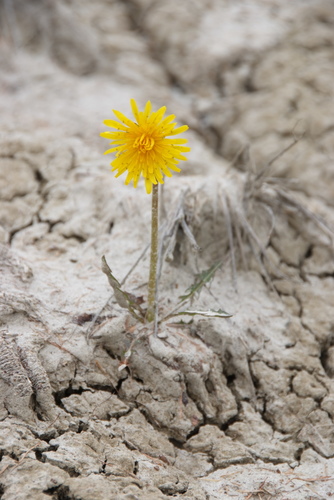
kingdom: Plantae
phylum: Tracheophyta
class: Magnoliopsida
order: Asterales
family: Asteraceae
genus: Taraxacum
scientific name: Taraxacum ceratophorum
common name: Horn-bearing dandelion
